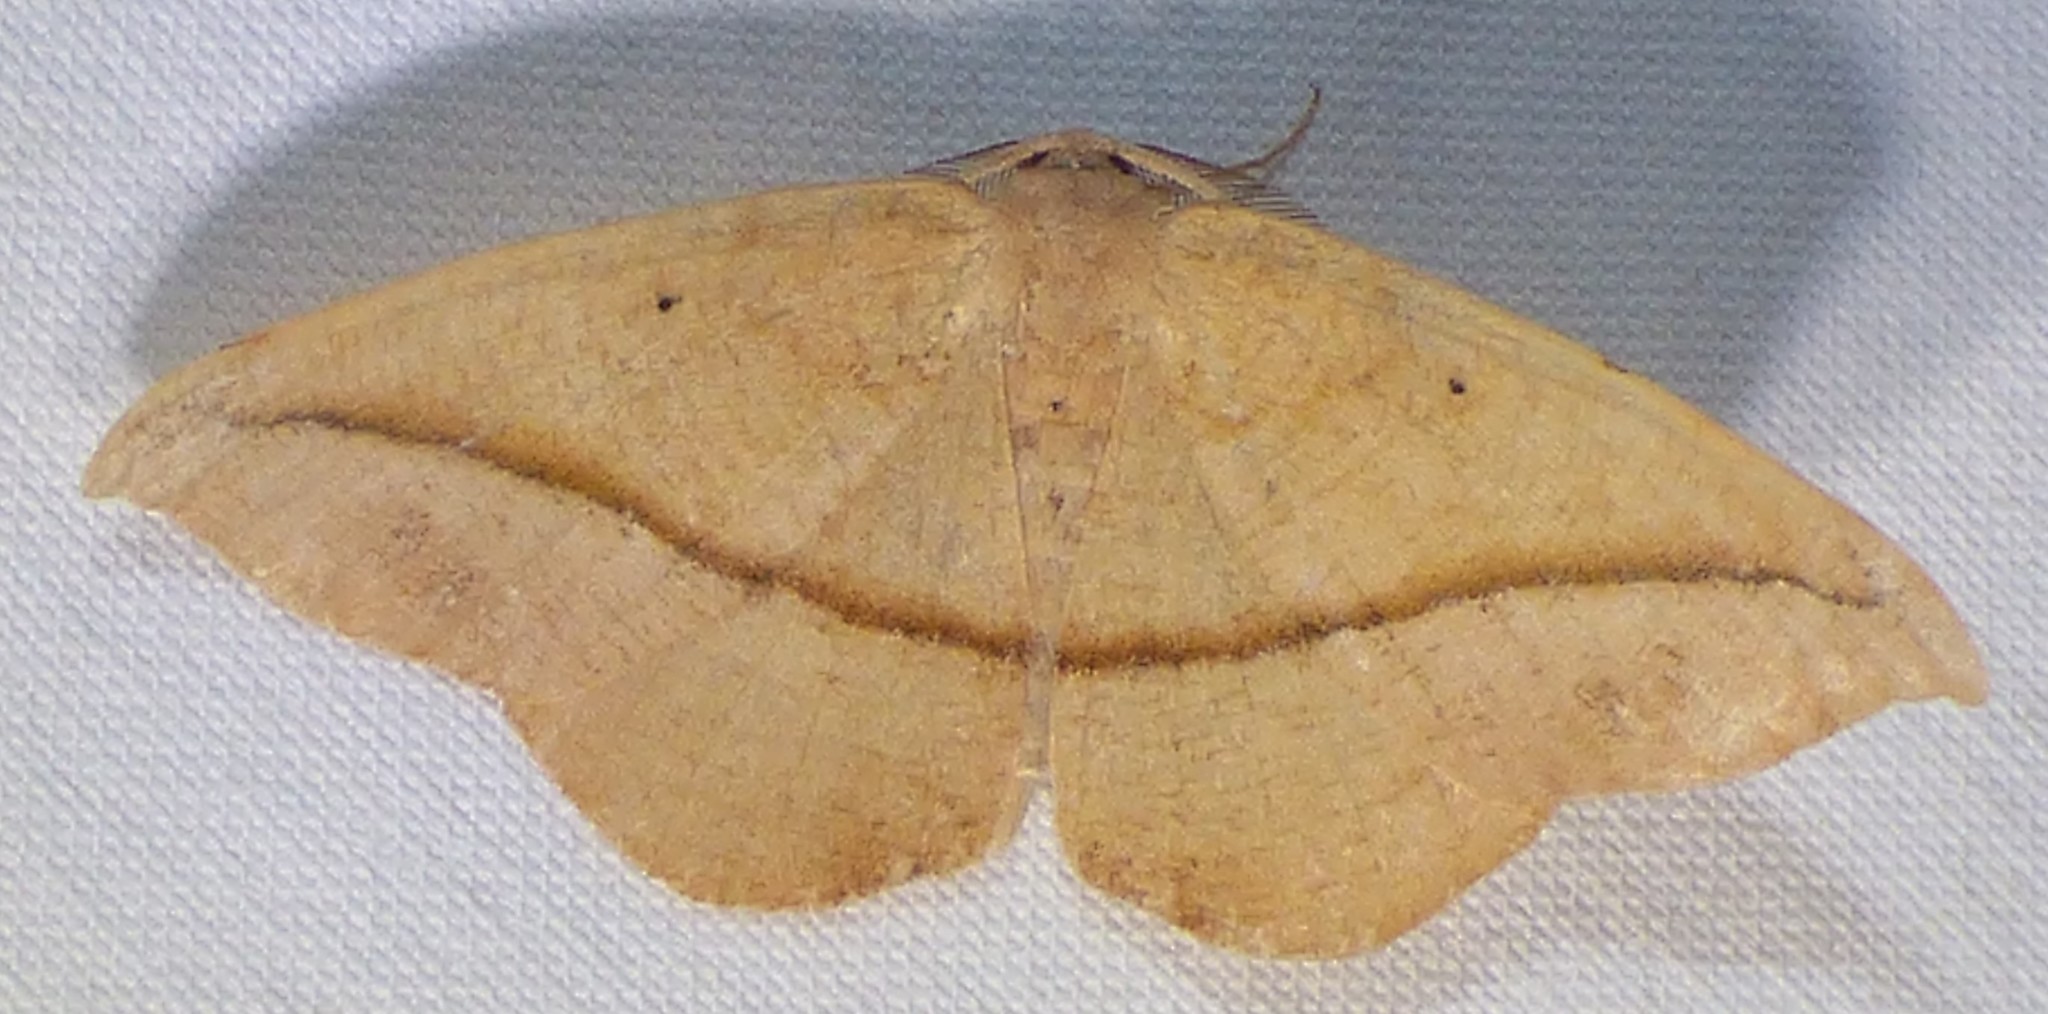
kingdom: Animalia
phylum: Arthropoda
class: Insecta
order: Lepidoptera
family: Geometridae
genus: Patalene
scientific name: Patalene olyzonaria
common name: Juniper geometer moth
